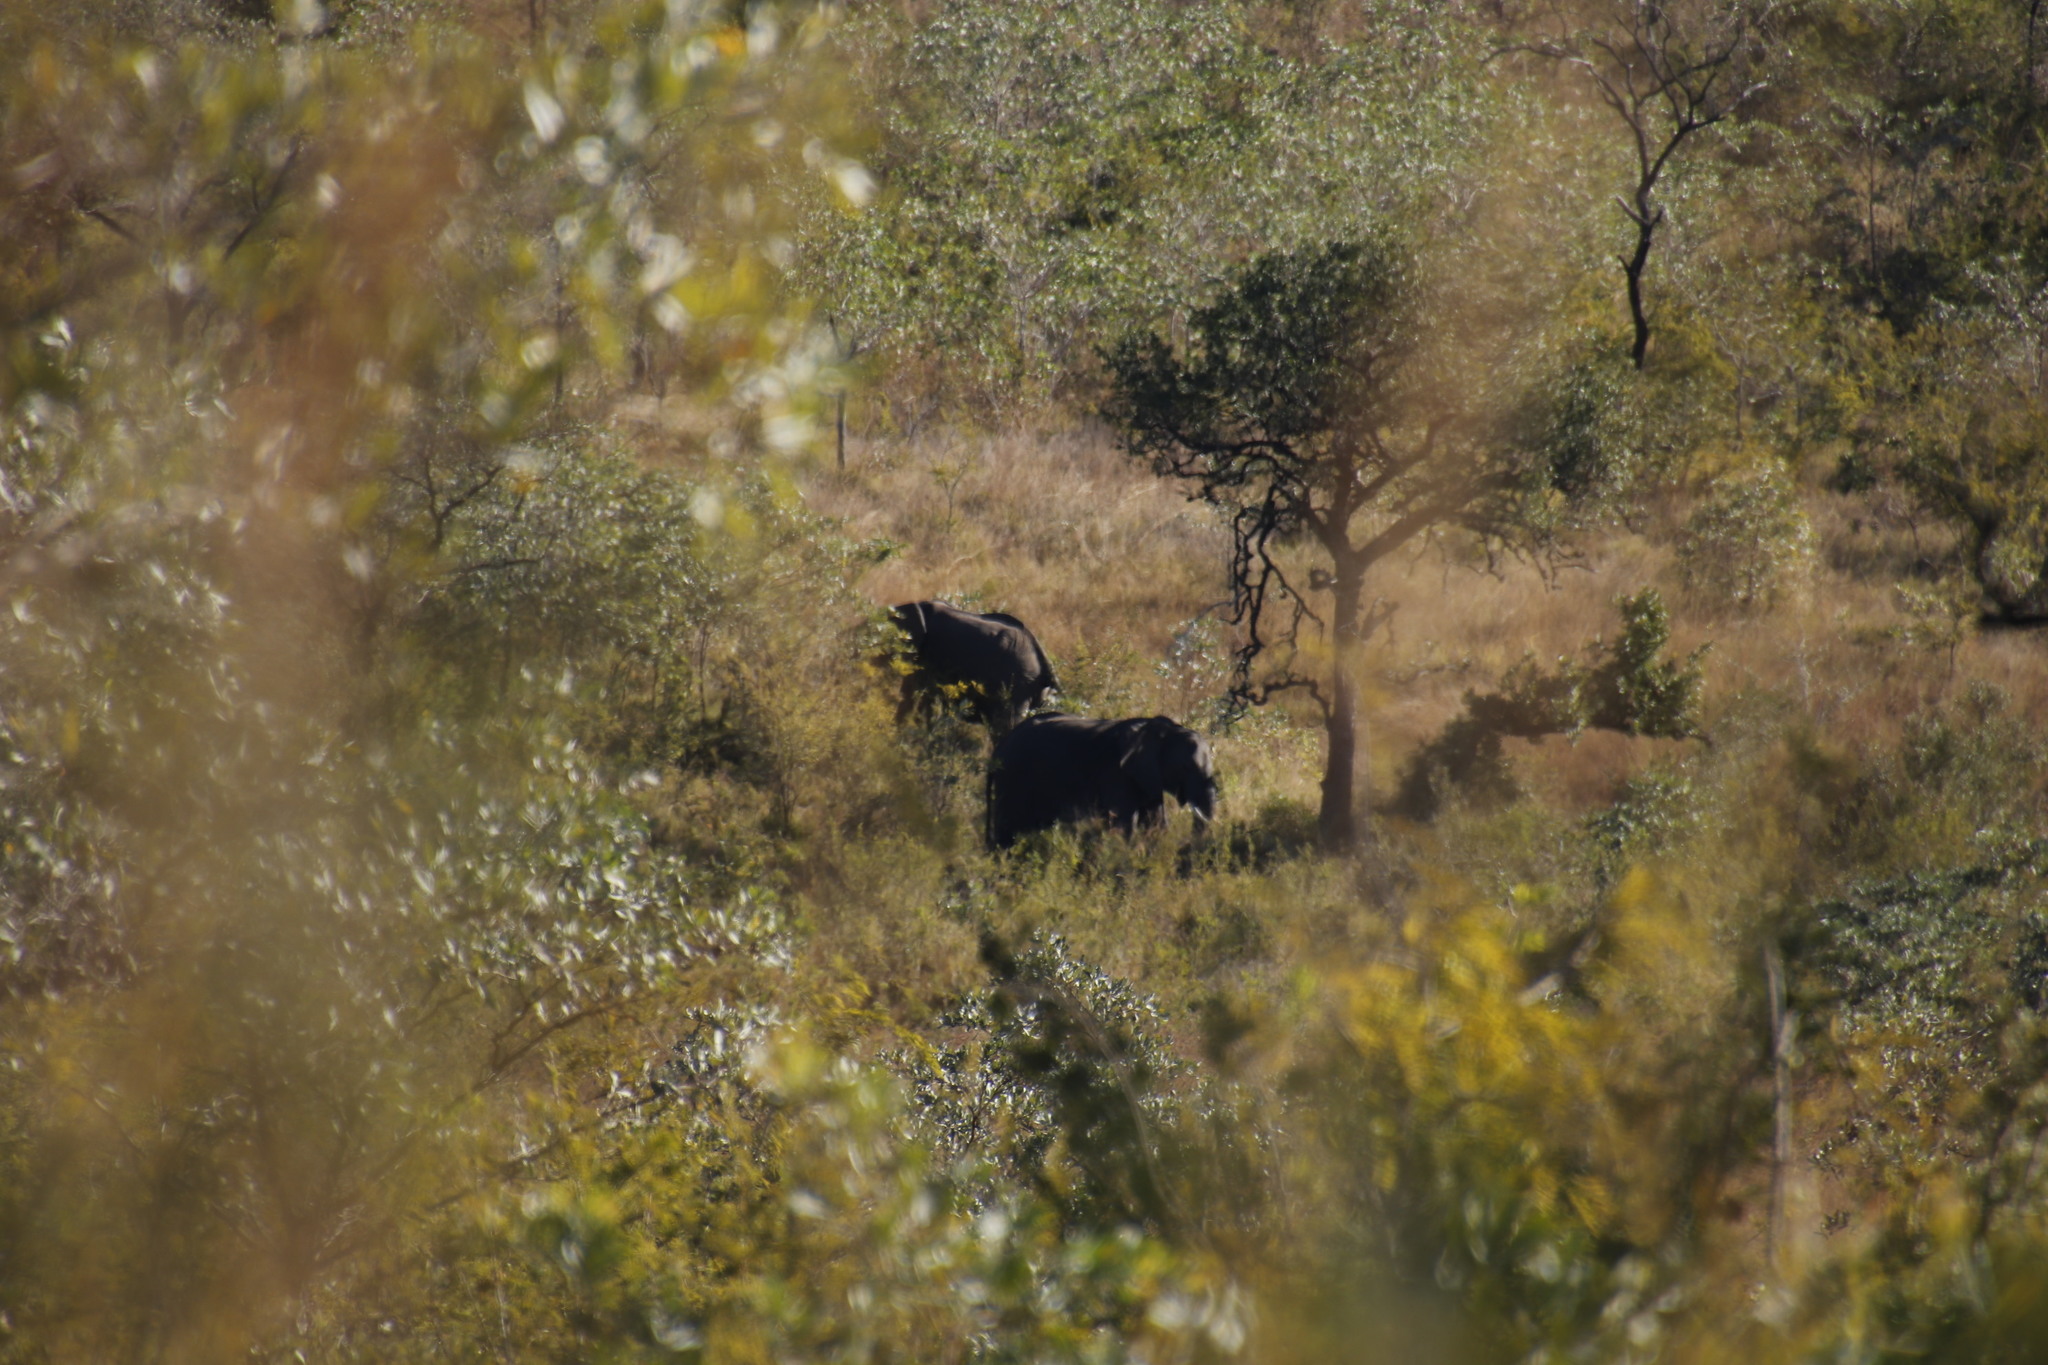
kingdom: Animalia
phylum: Chordata
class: Mammalia
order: Proboscidea
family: Elephantidae
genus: Loxodonta
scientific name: Loxodonta africana
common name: African elephant
